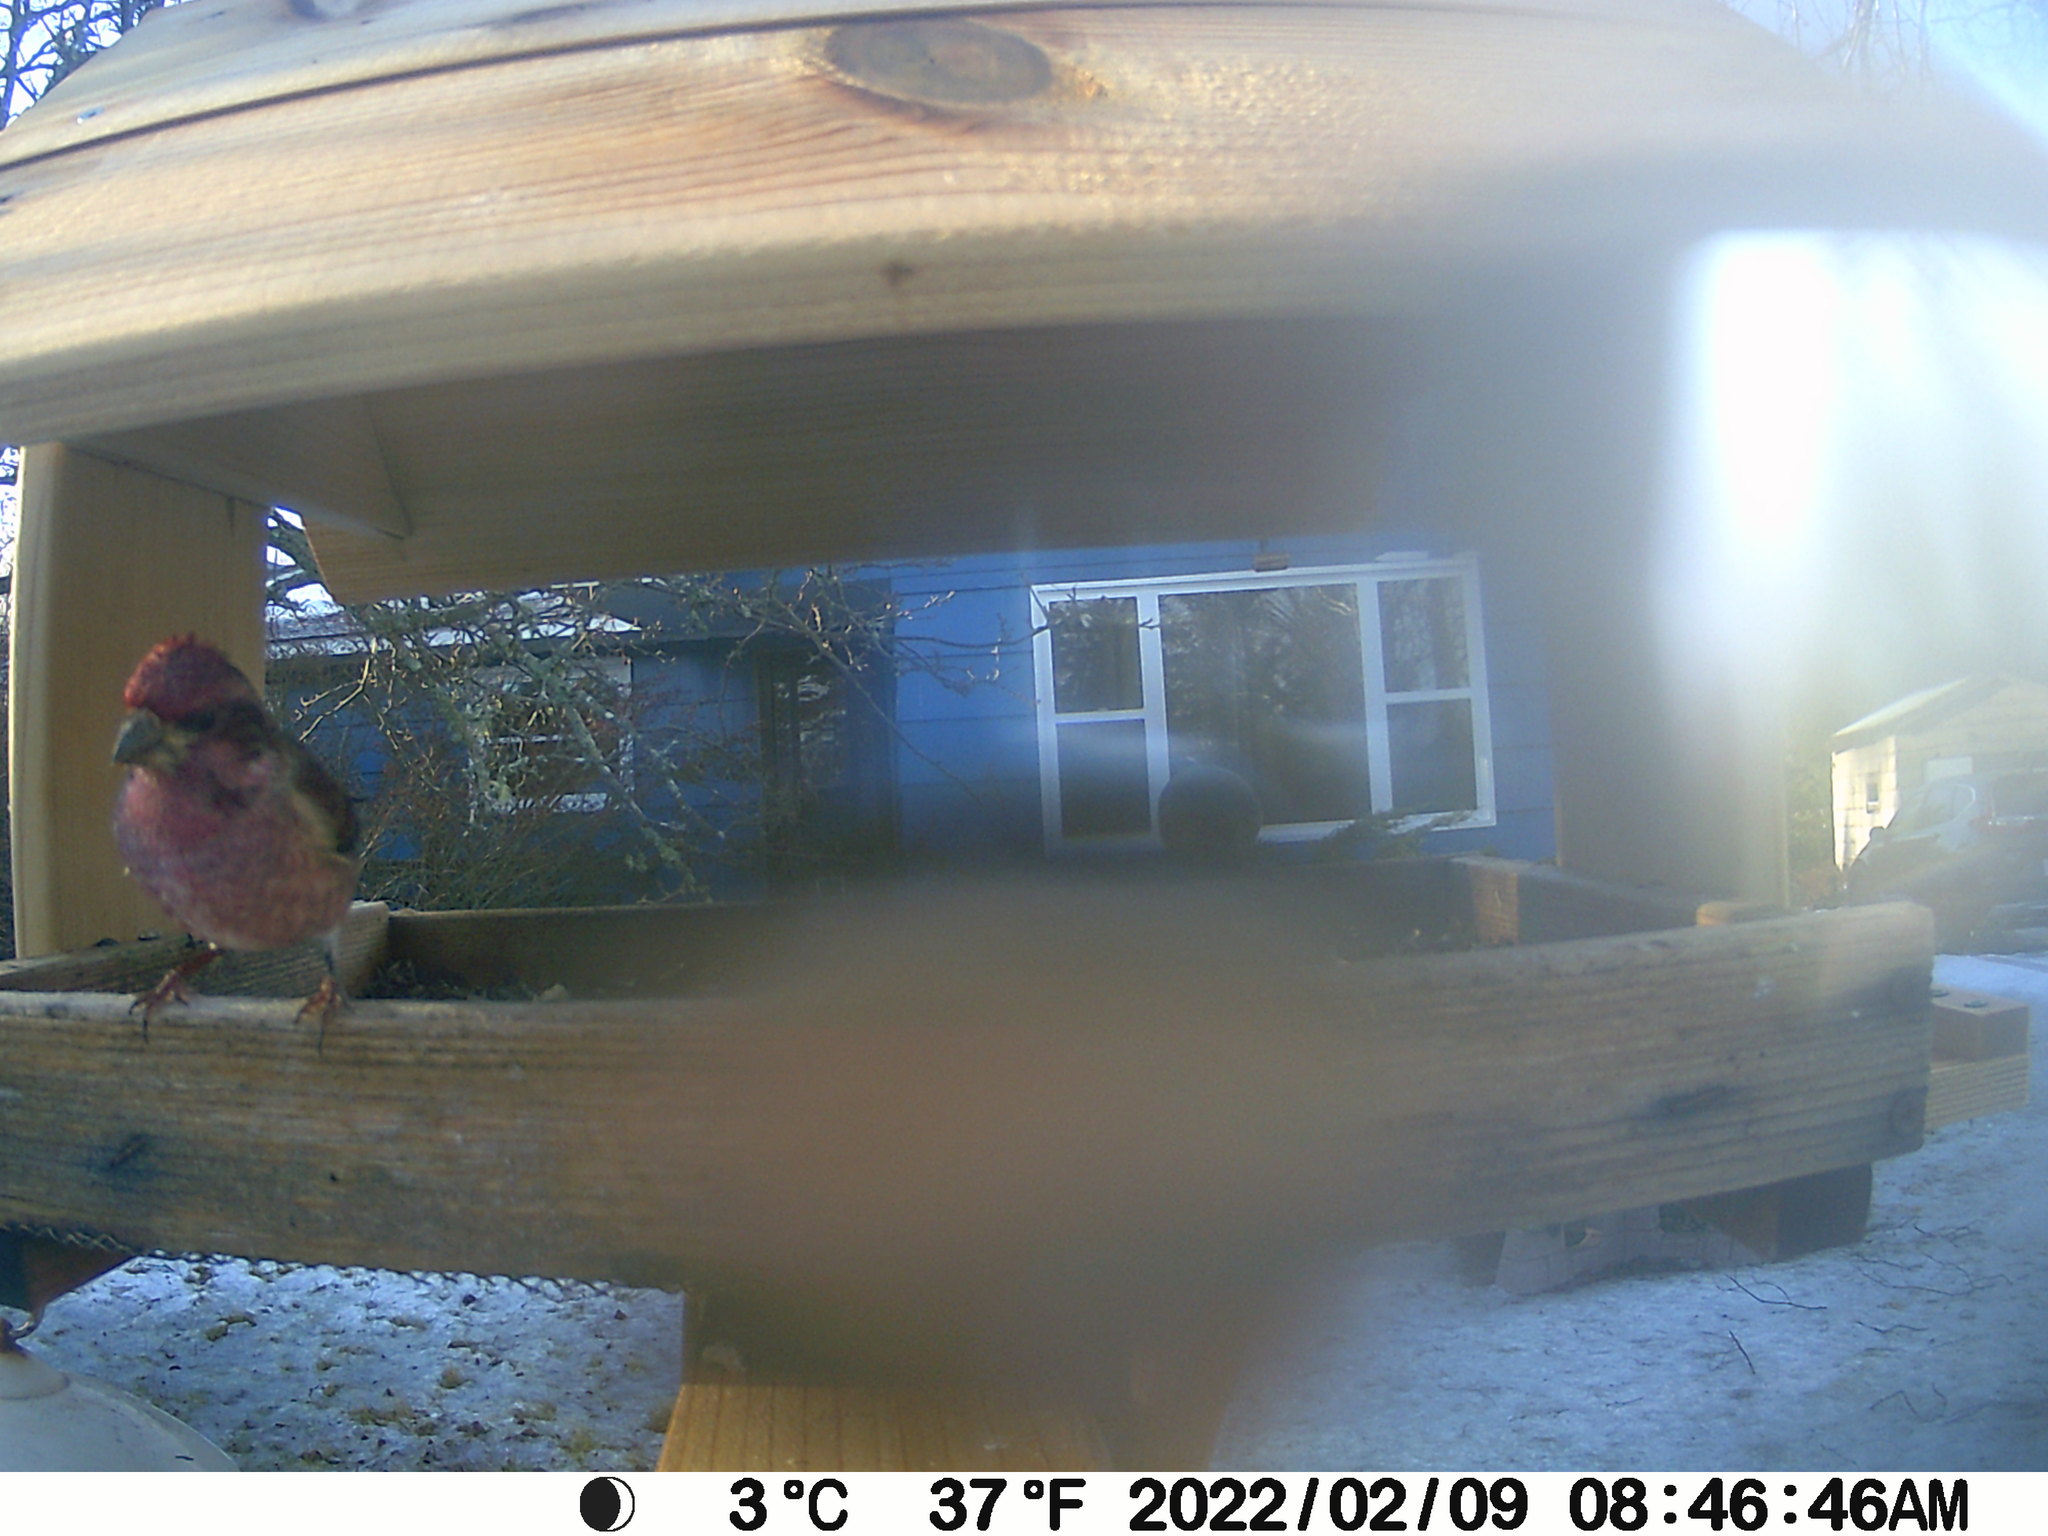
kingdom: Animalia
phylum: Chordata
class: Aves
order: Passeriformes
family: Fringillidae
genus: Haemorhous
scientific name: Haemorhous purpureus
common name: Purple finch
